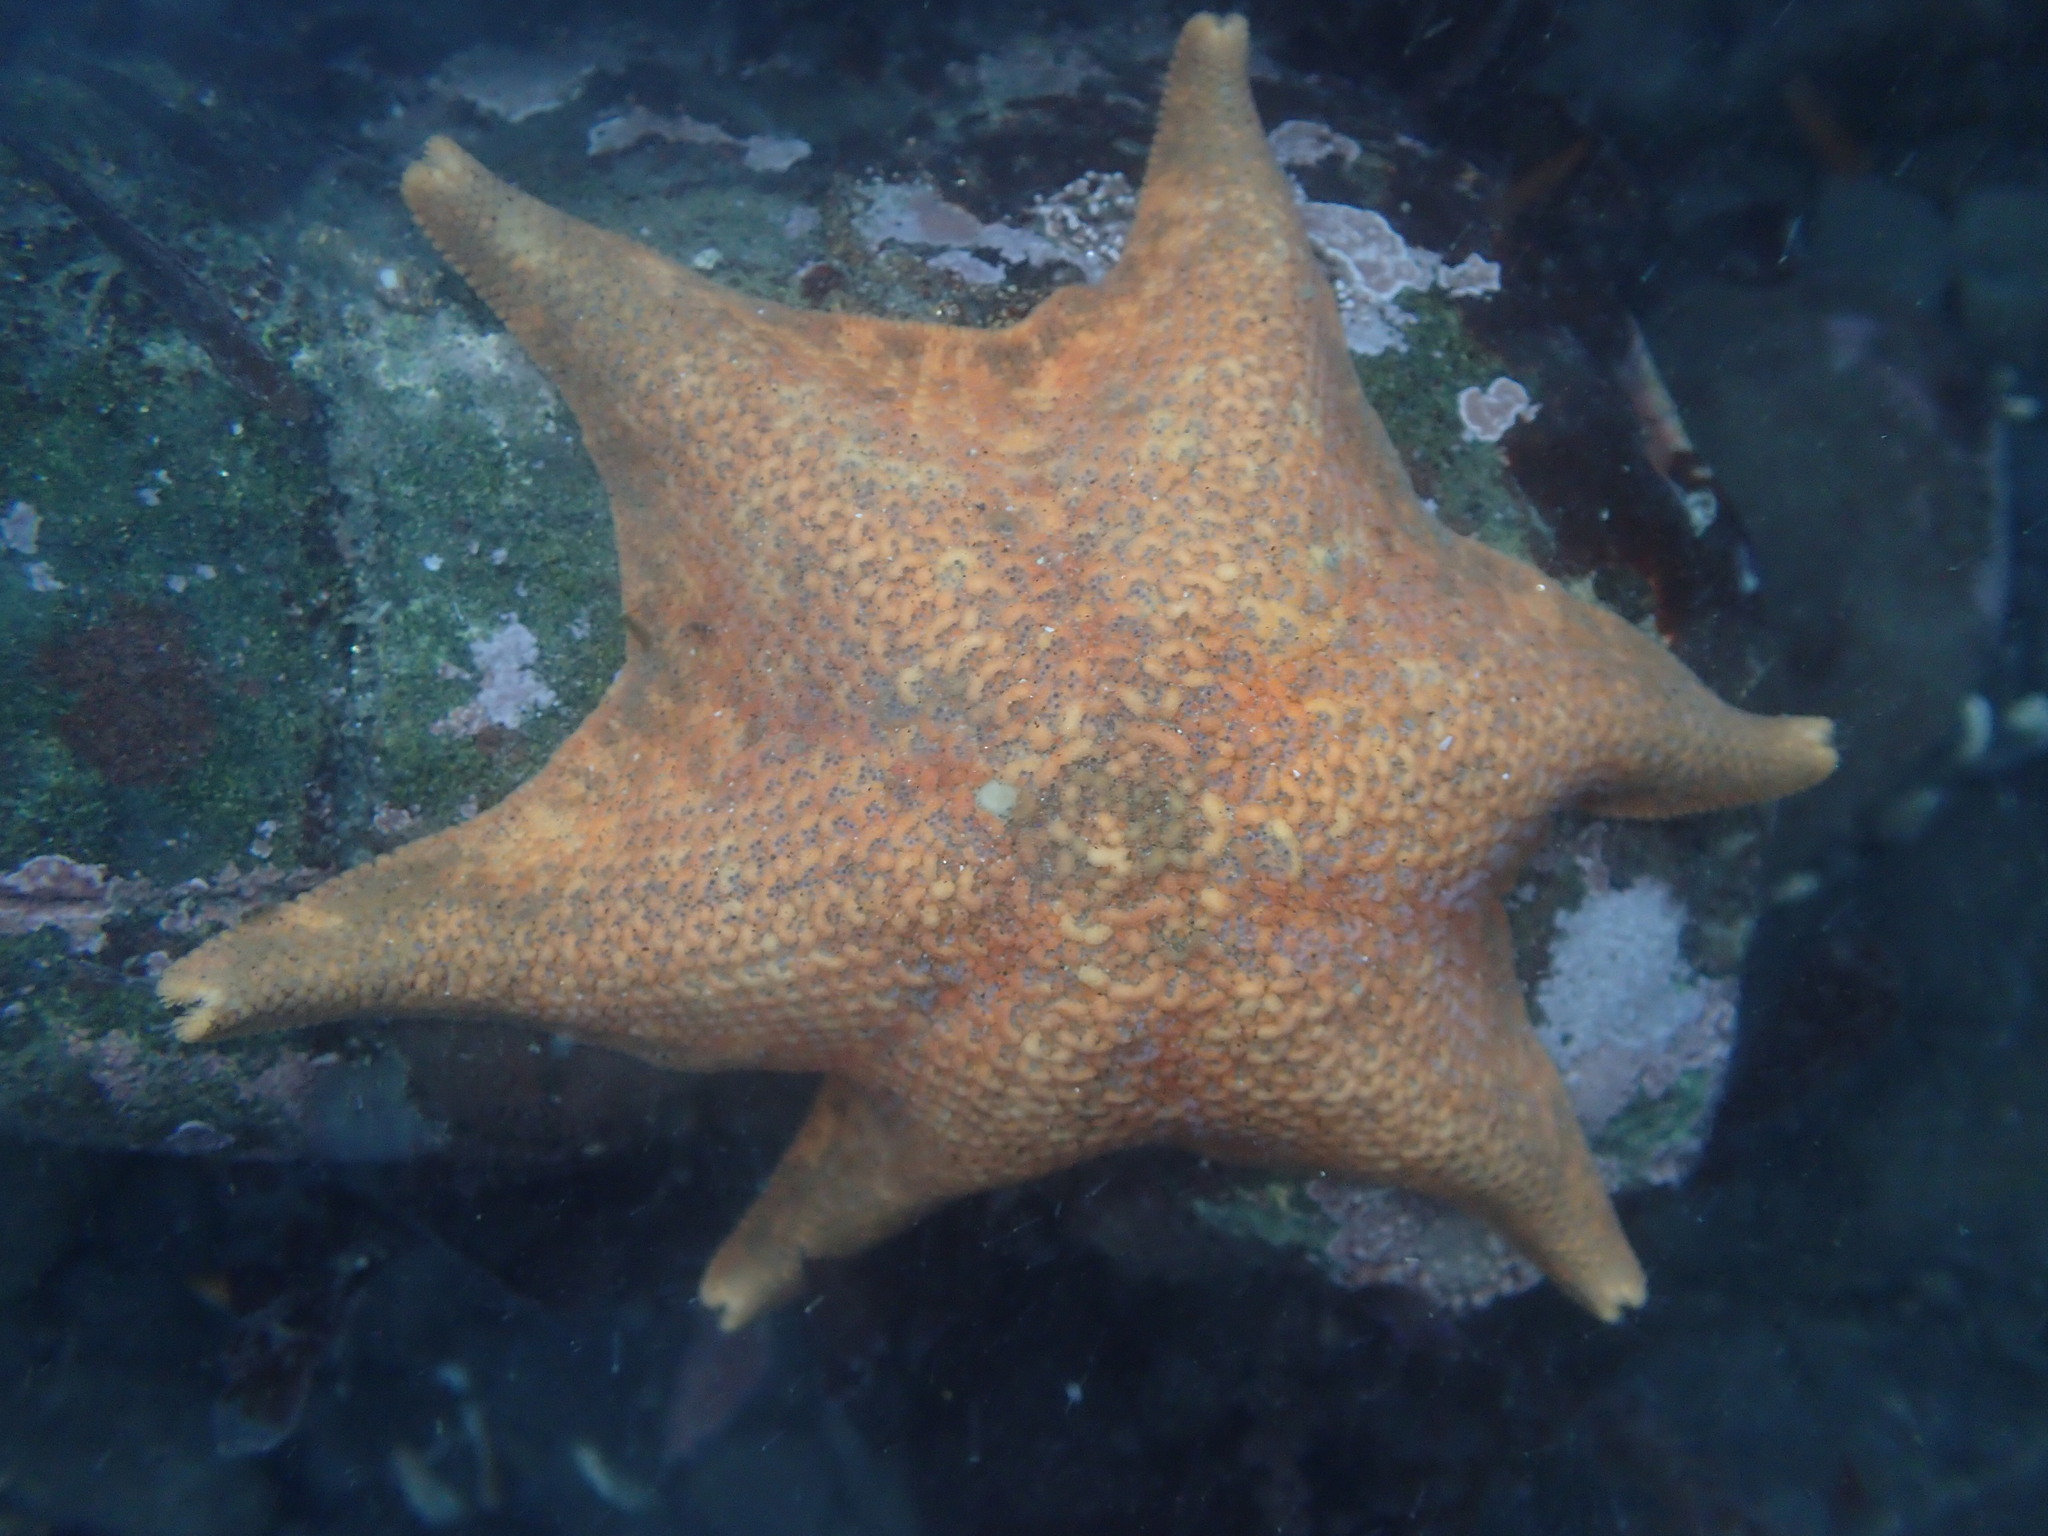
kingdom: Animalia
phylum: Echinodermata
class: Asteroidea
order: Valvatida
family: Asterinidae
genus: Patiria
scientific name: Patiria miniata
